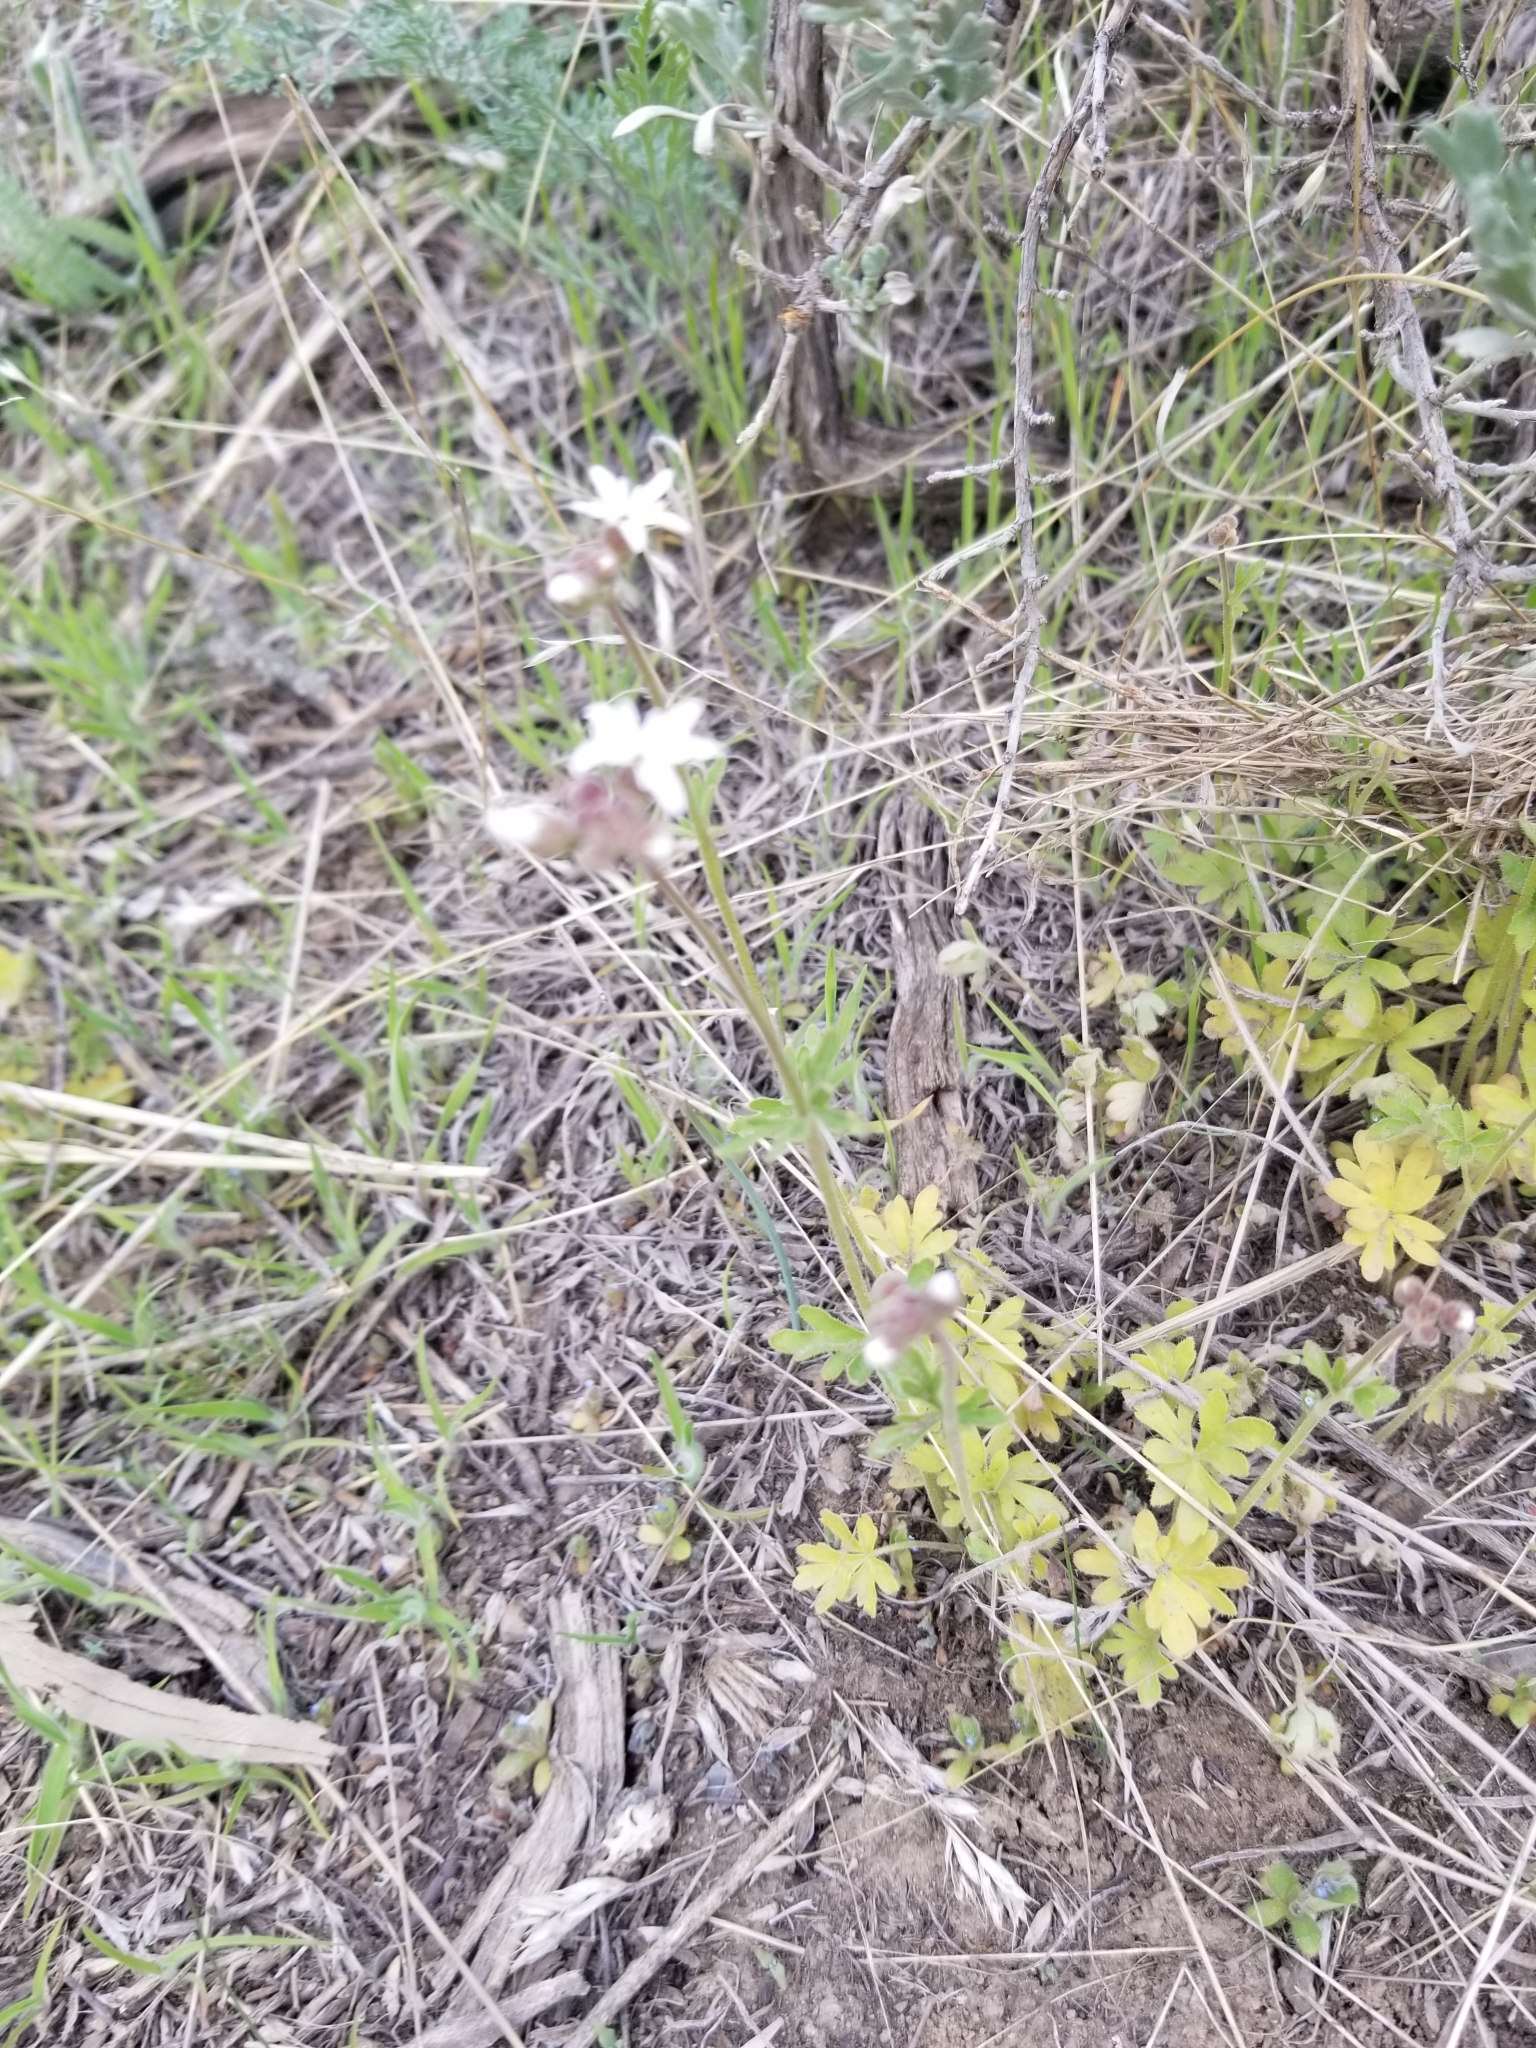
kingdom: Plantae
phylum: Tracheophyta
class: Magnoliopsida
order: Saxifragales
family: Saxifragaceae
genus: Lithophragma
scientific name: Lithophragma parviflorum
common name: Small-flowered fringe-cup
